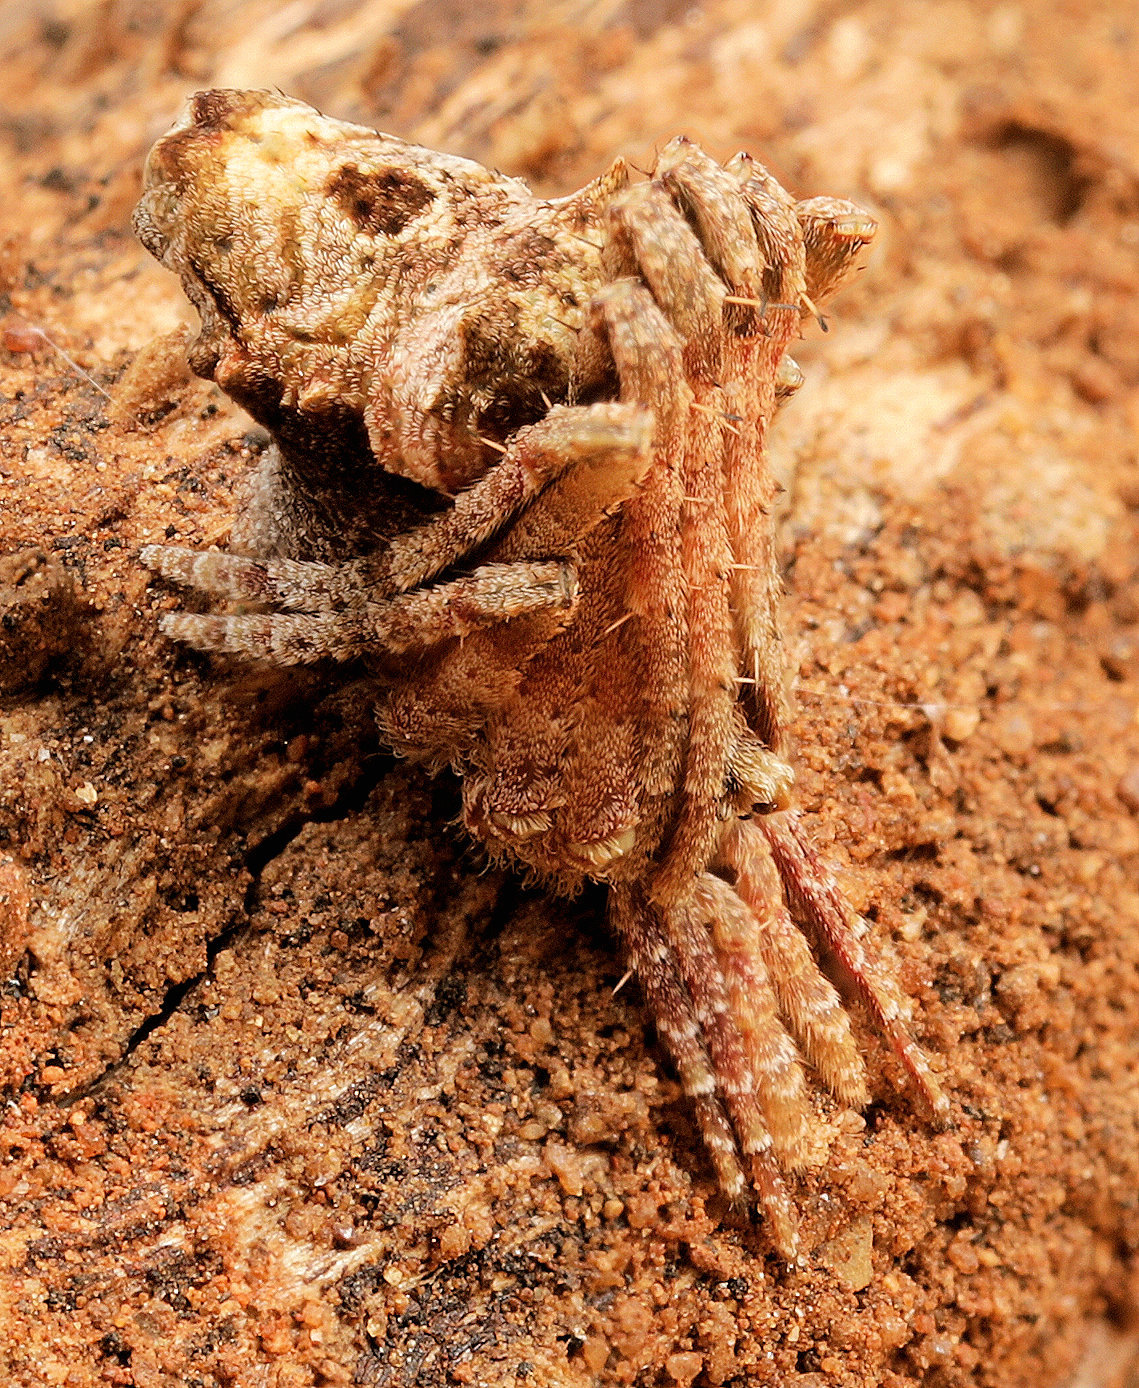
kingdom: Animalia
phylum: Arthropoda
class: Arachnida
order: Araneae
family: Araneidae
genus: Cyphalonotus
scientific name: Cyphalonotus larvatus
